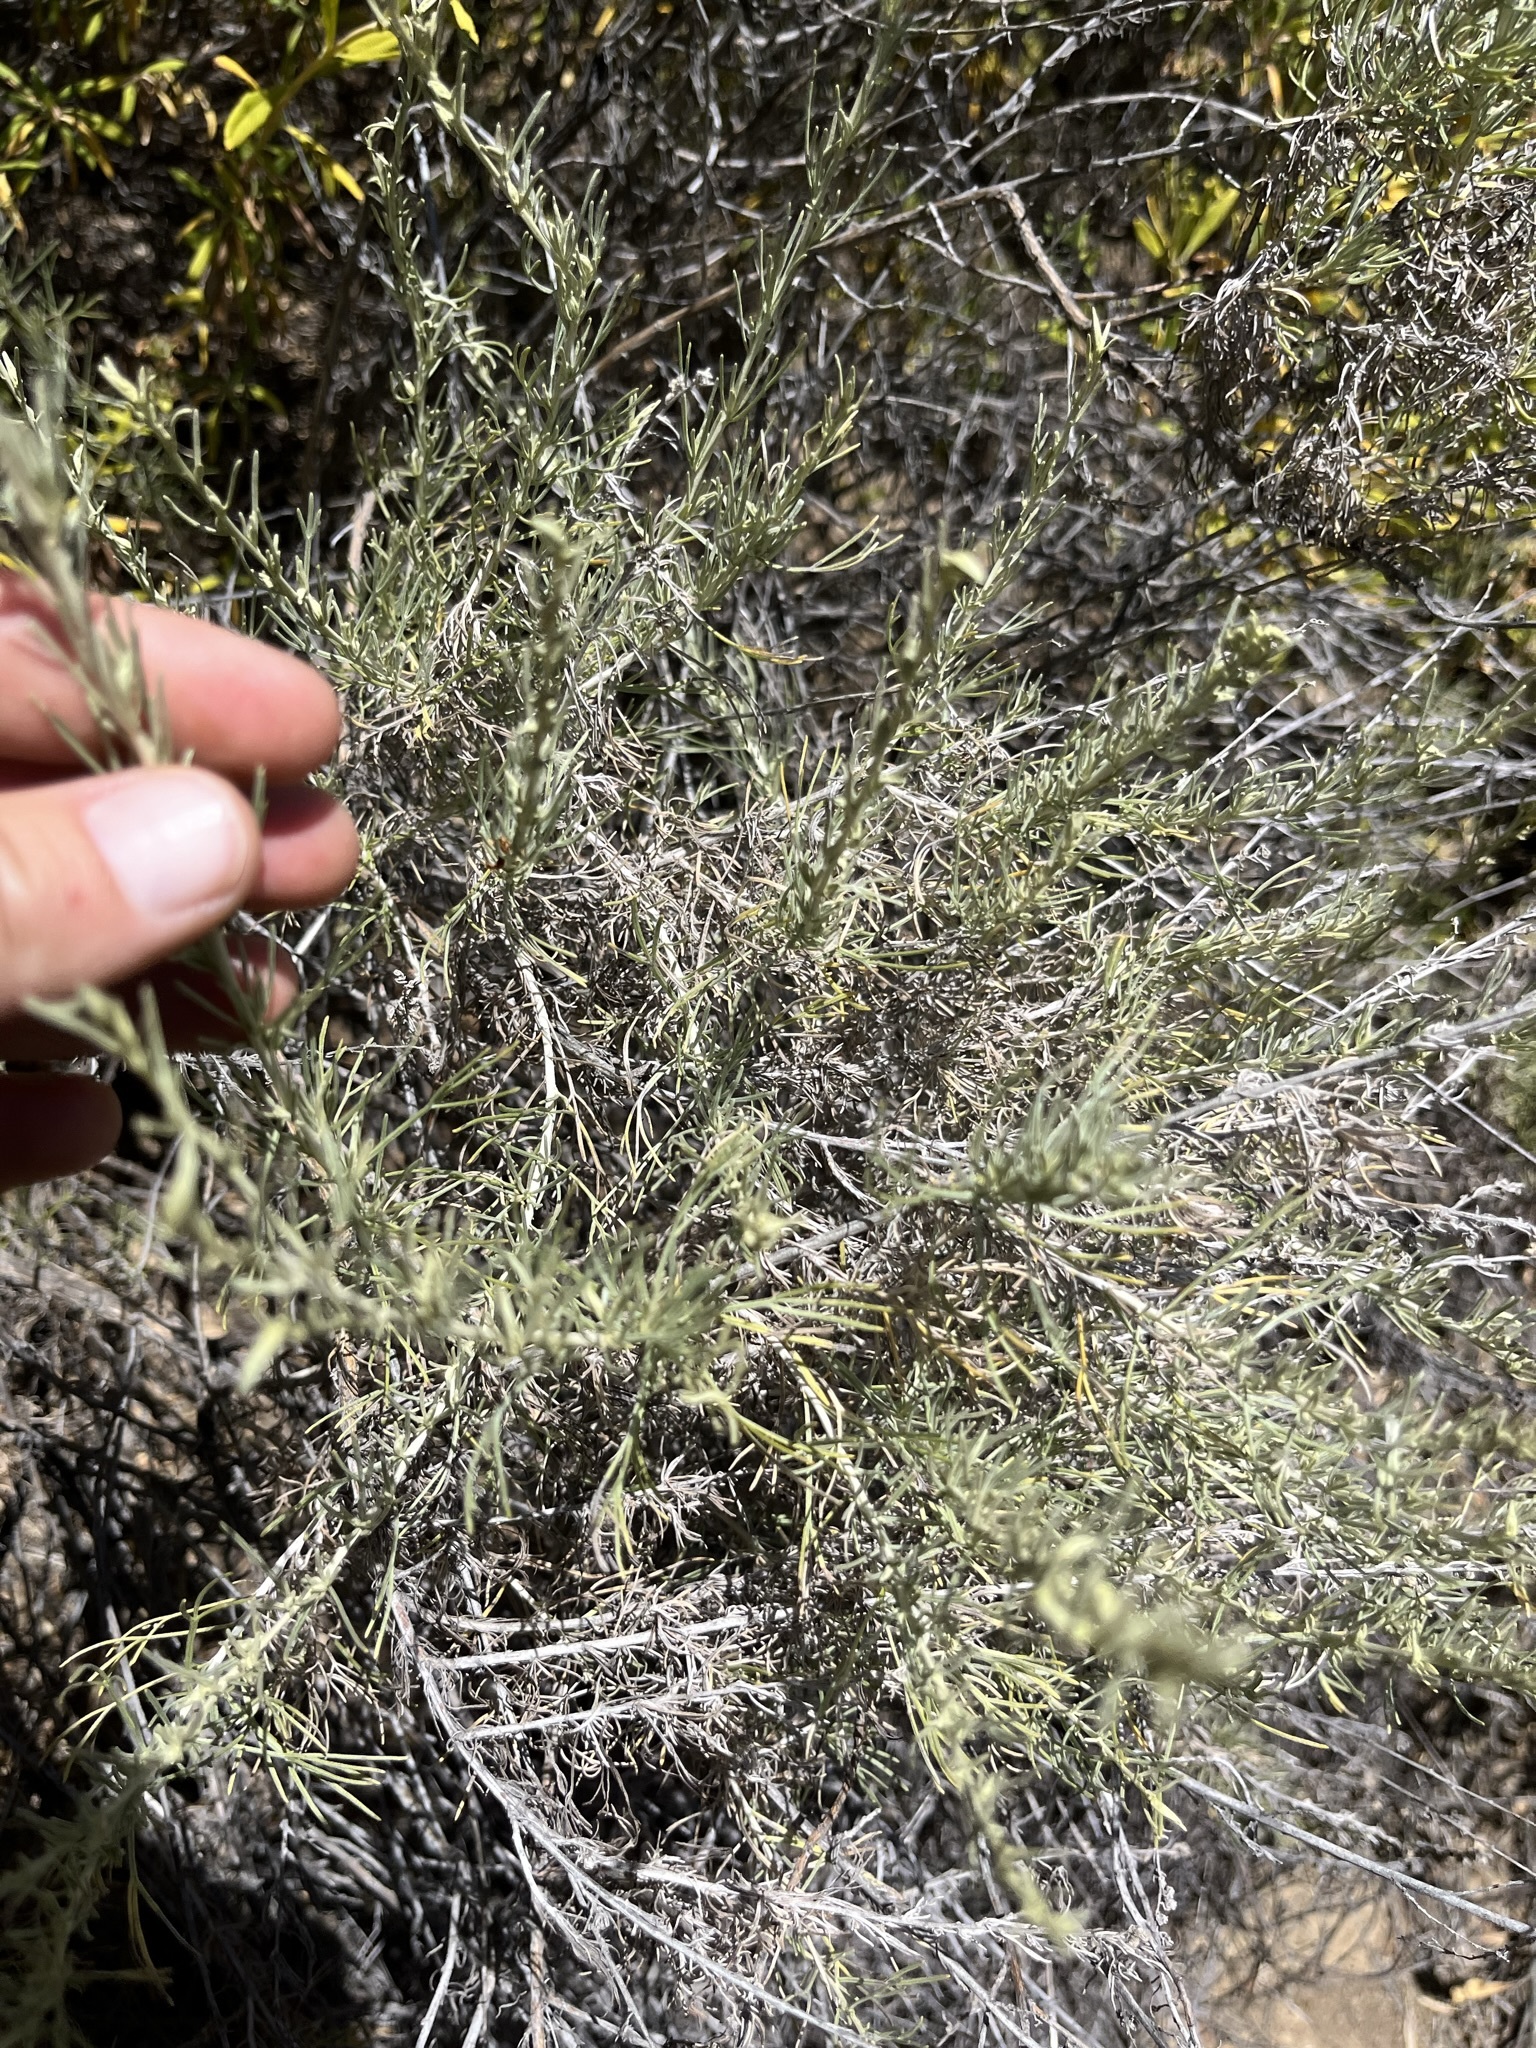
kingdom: Plantae
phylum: Tracheophyta
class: Magnoliopsida
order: Asterales
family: Asteraceae
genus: Artemisia
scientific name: Artemisia californica
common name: California sagebrush
